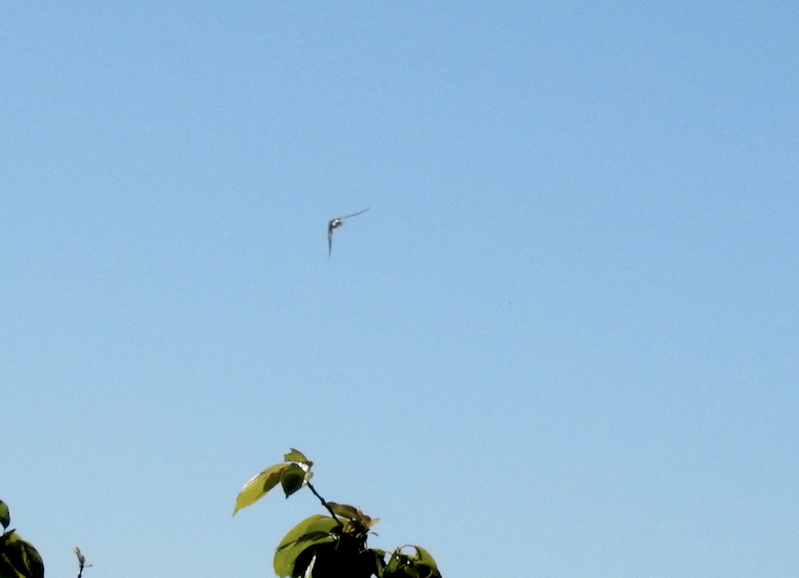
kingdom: Animalia
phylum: Chordata
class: Aves
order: Passeriformes
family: Hirundinidae
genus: Tachycineta
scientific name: Tachycineta thalassina
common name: Violet-green swallow
